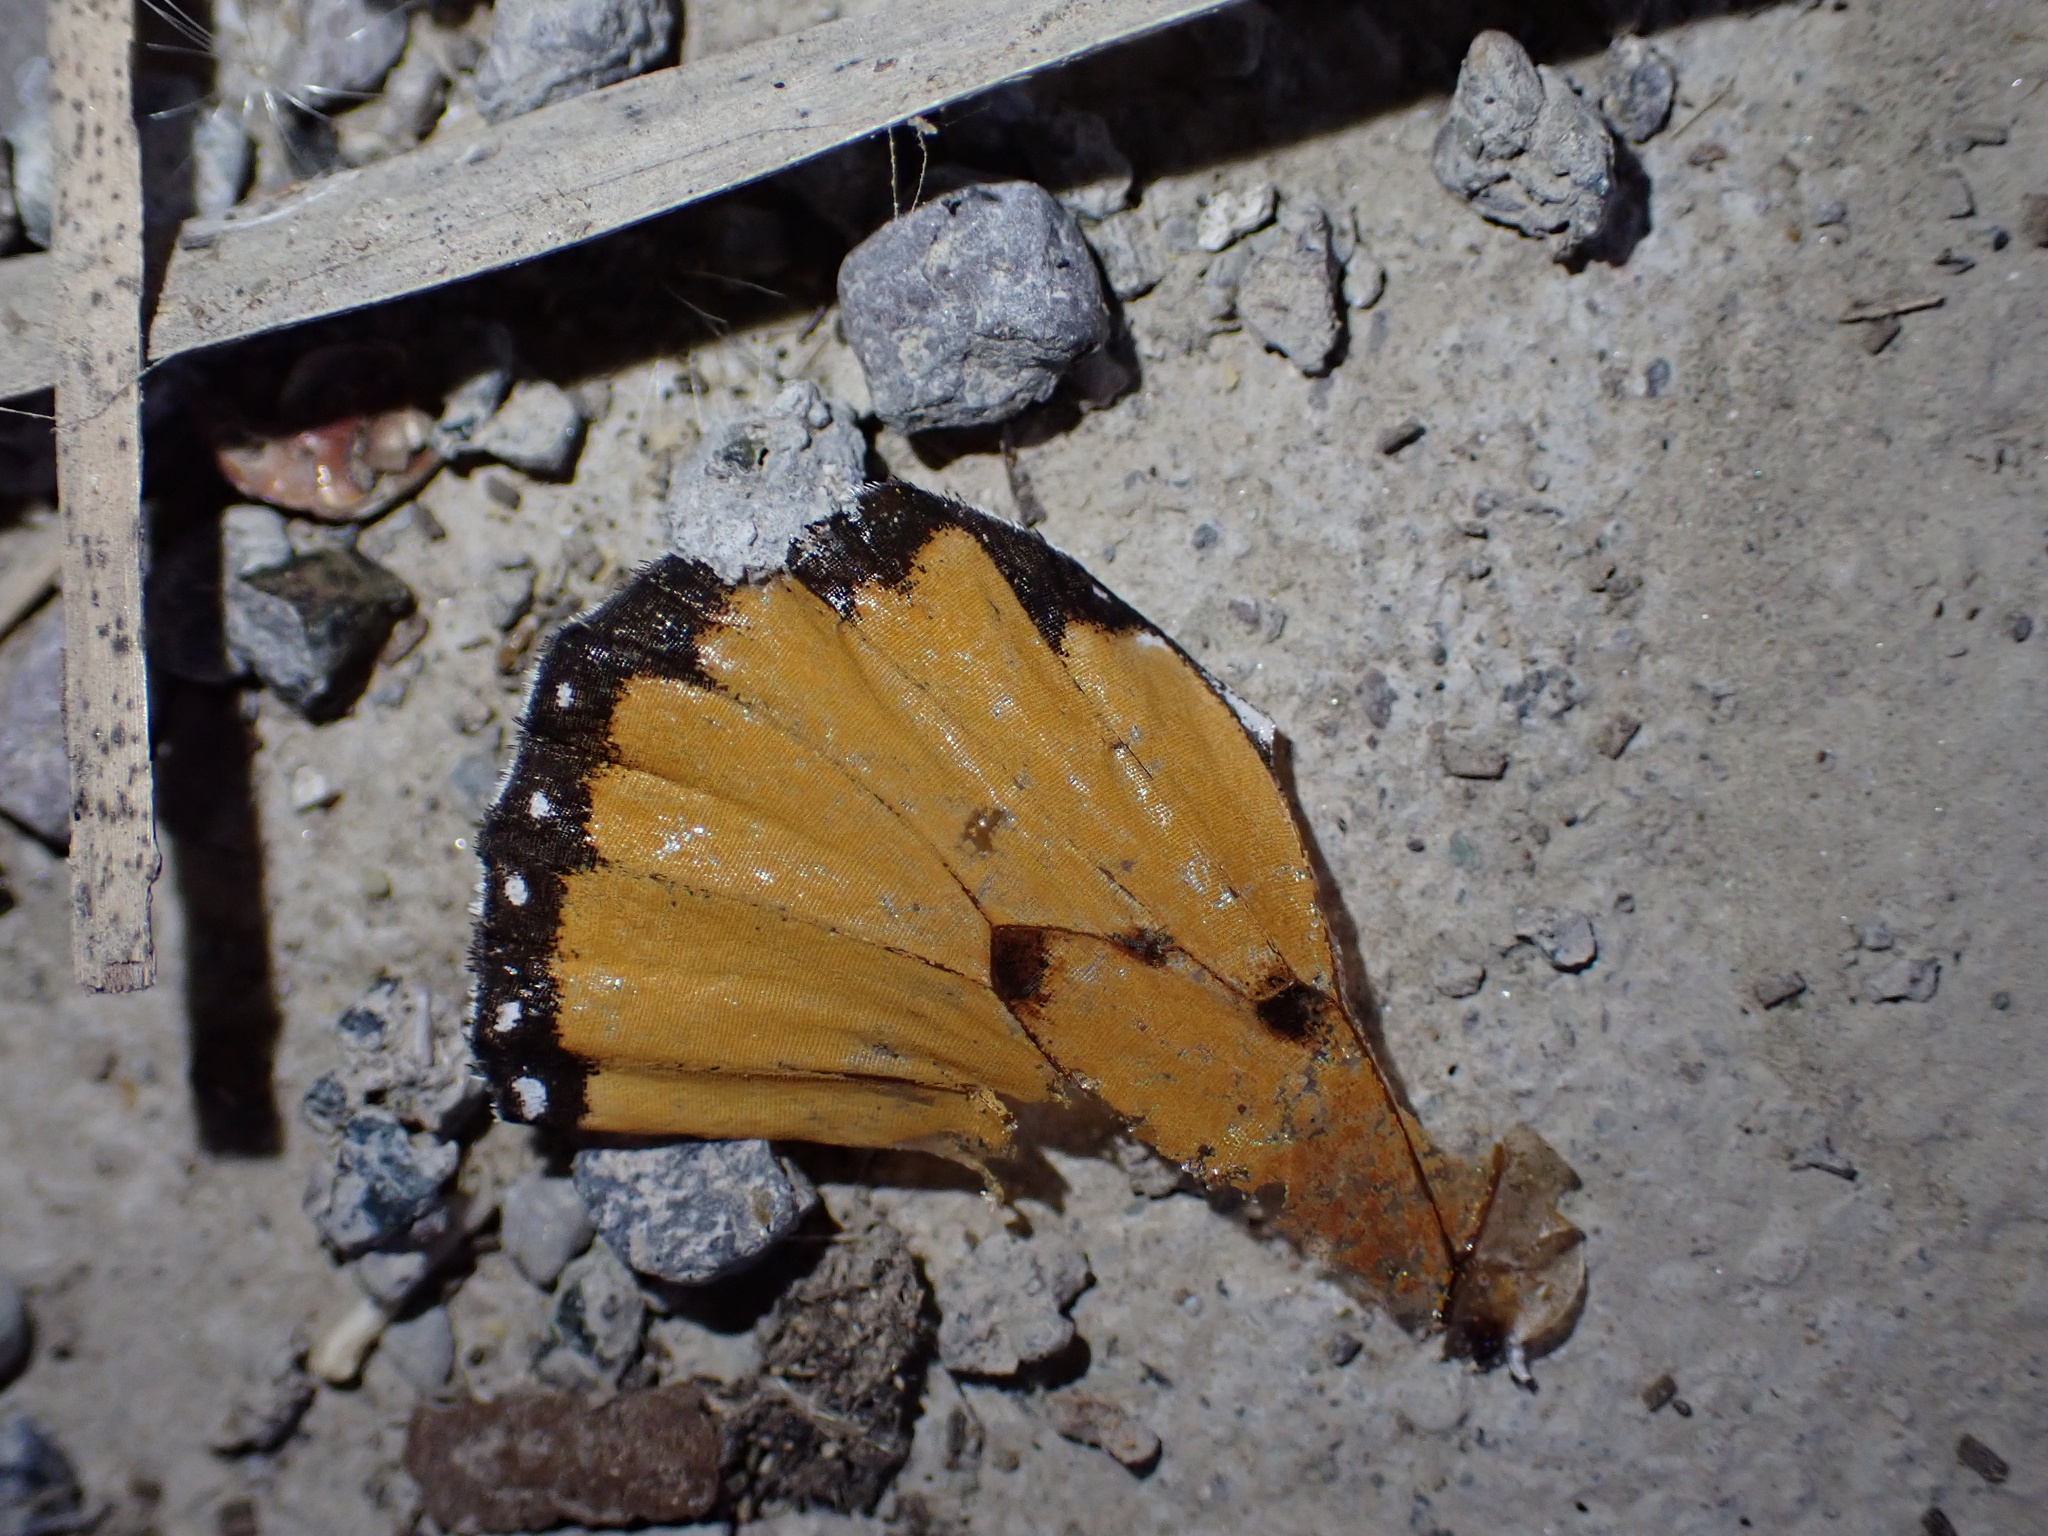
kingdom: Animalia
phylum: Arthropoda
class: Insecta
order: Lepidoptera
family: Nymphalidae
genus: Danaus
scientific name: Danaus chrysippus
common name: Plain tiger
